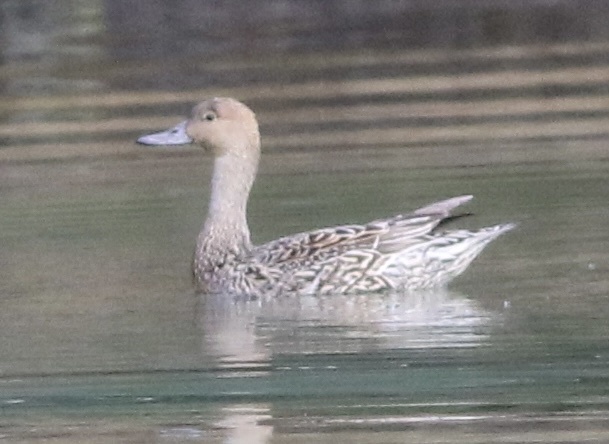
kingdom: Animalia
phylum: Chordata
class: Aves
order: Anseriformes
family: Anatidae
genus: Anas
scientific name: Anas acuta
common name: Northern pintail
